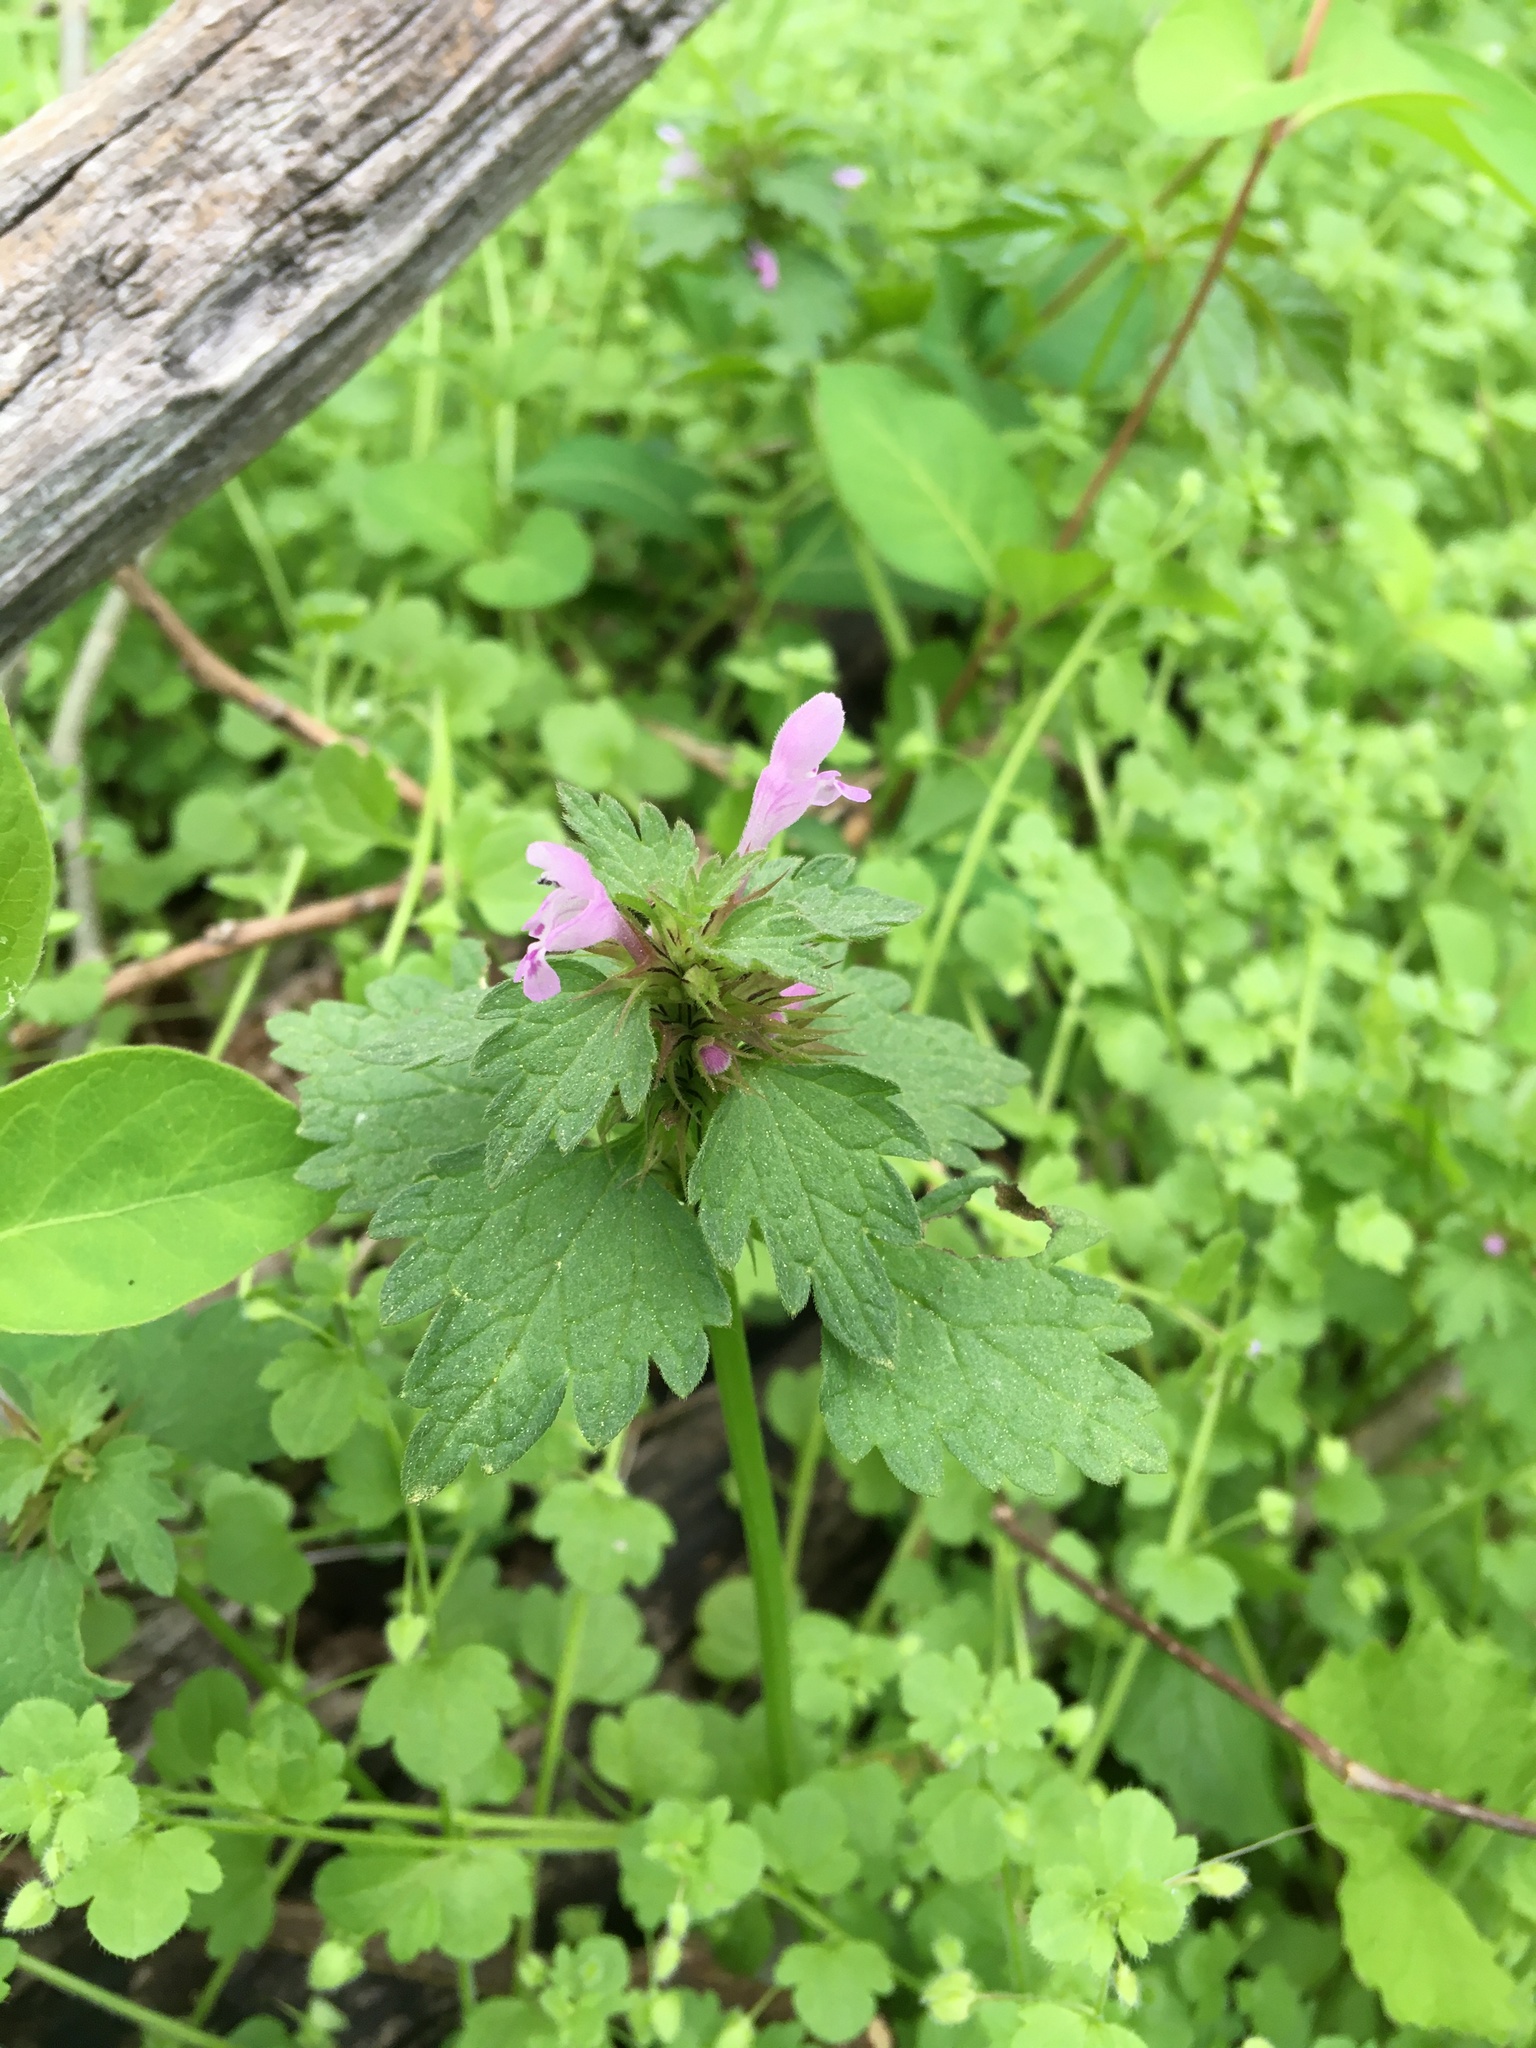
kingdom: Plantae
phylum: Tracheophyta
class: Magnoliopsida
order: Lamiales
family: Lamiaceae
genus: Lamium
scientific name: Lamium hybridum
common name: Cut-leaved dead-nettle
